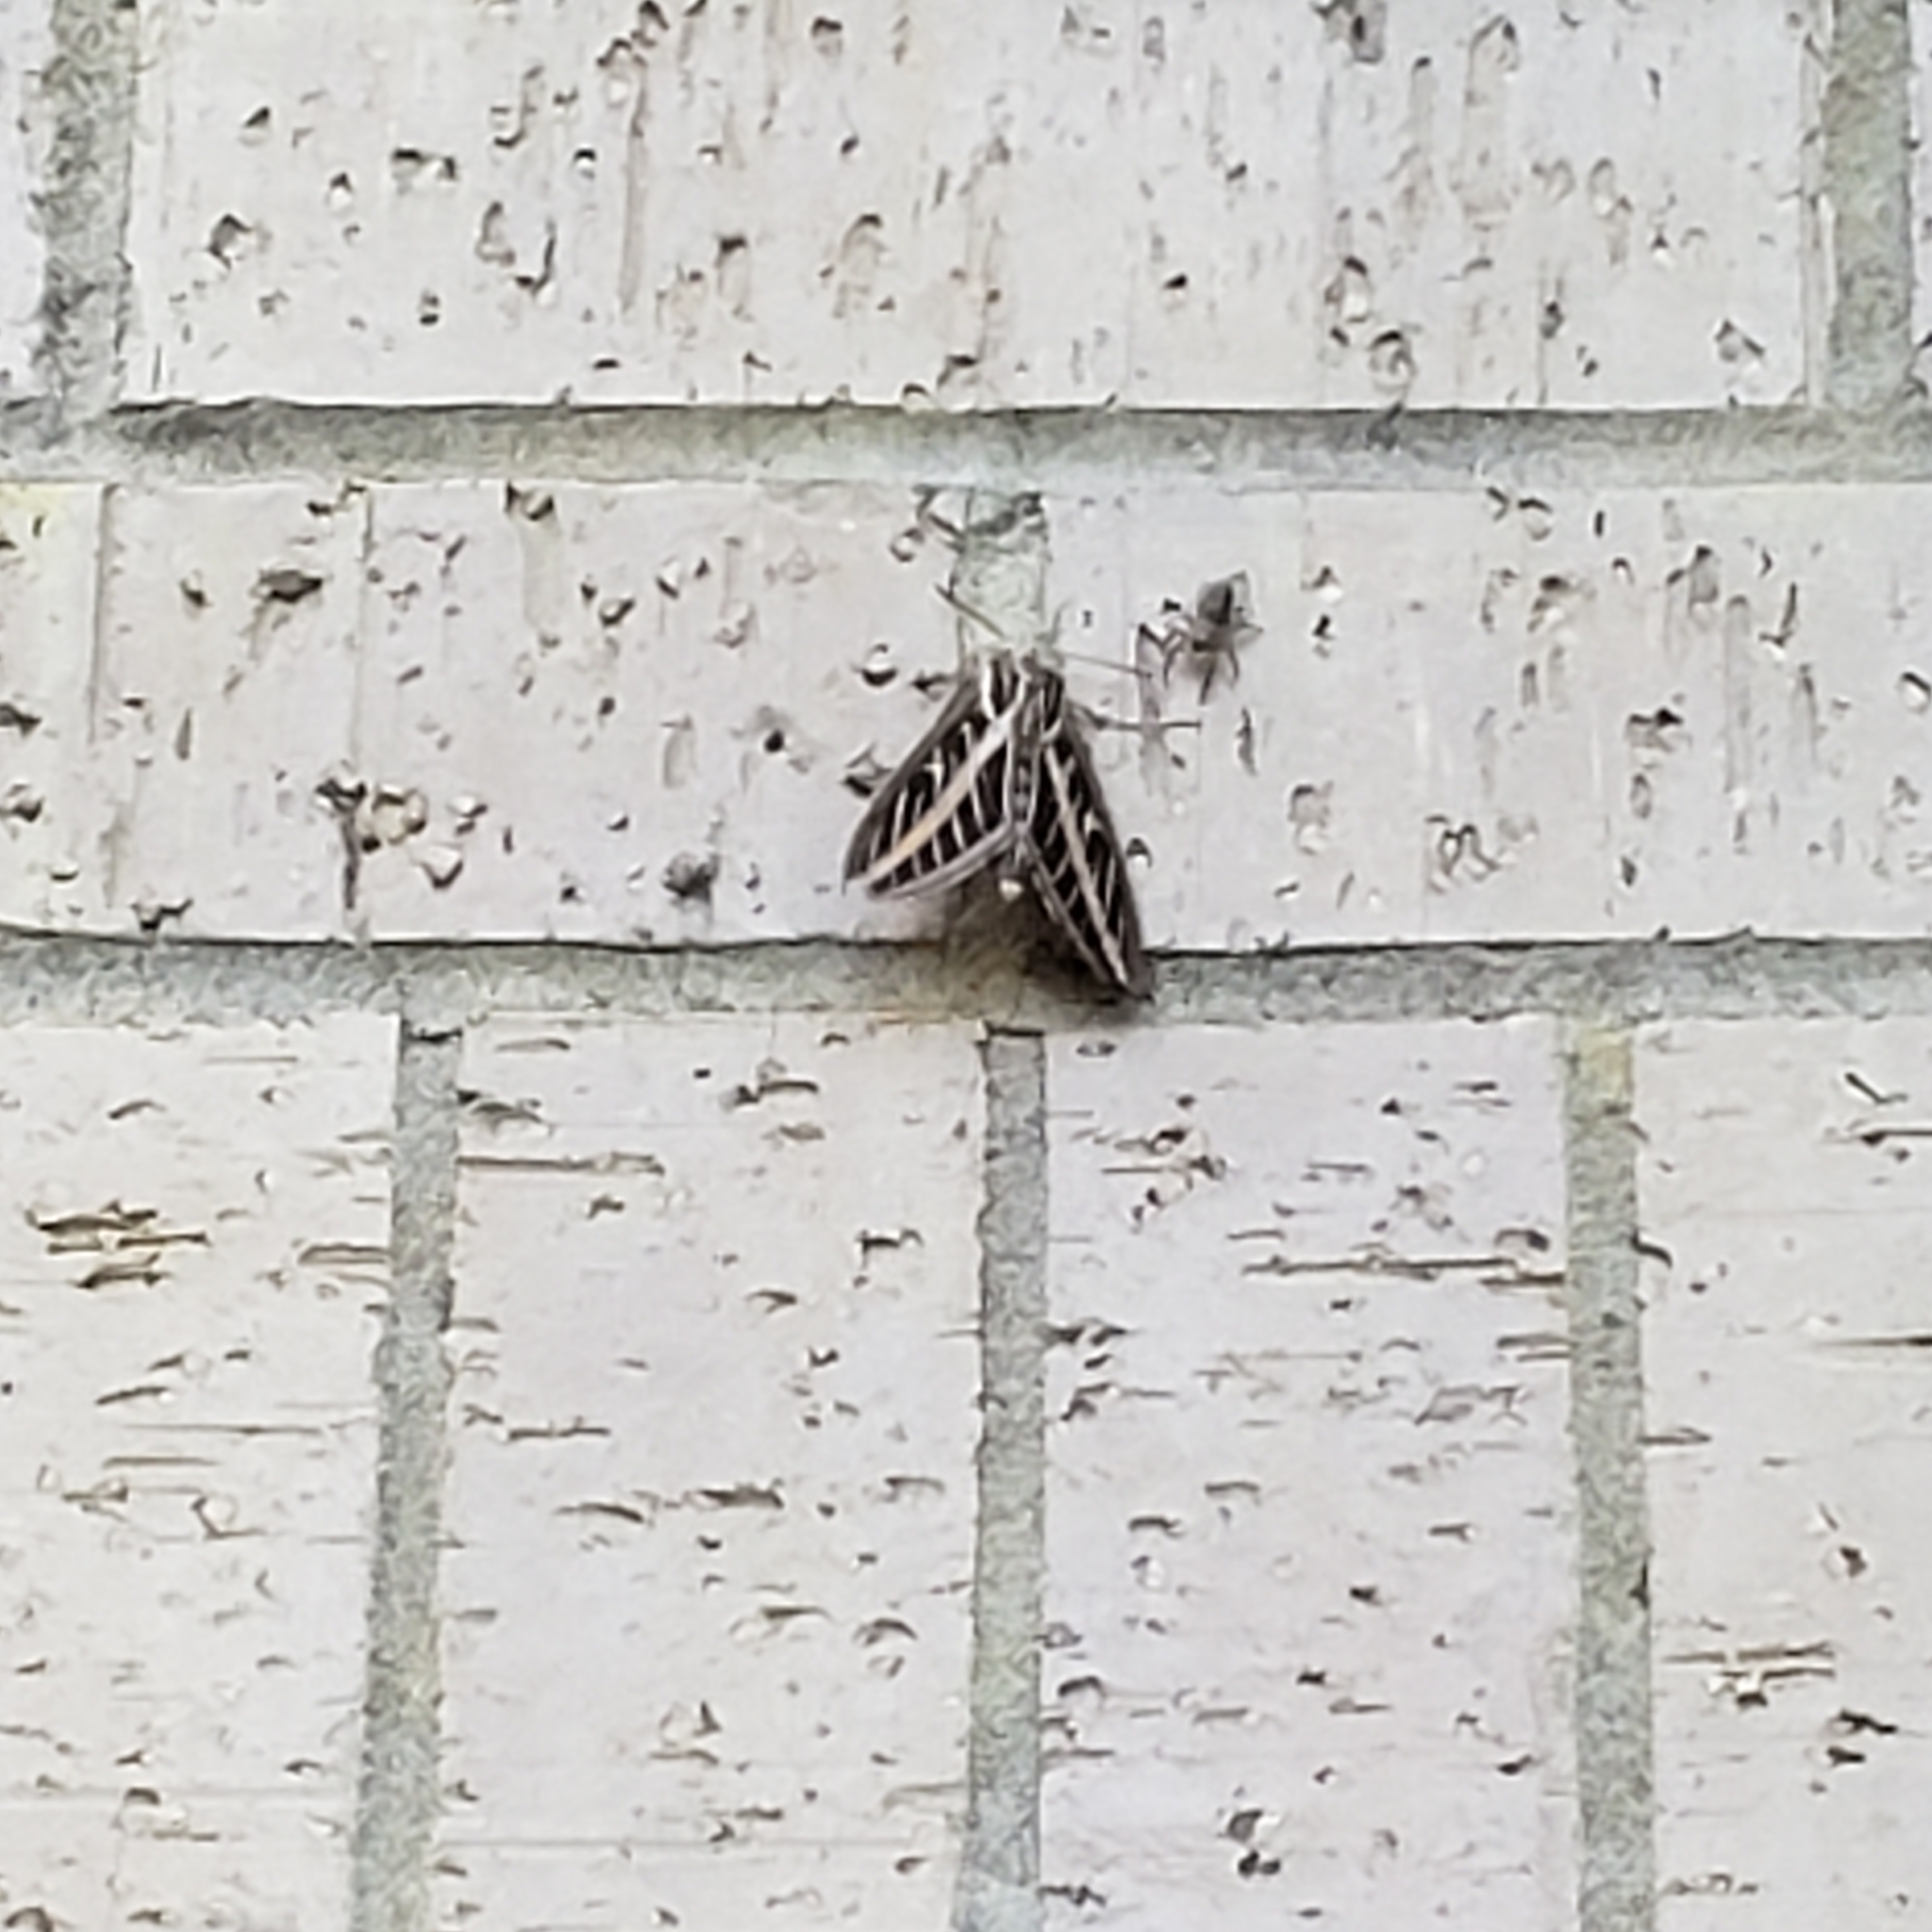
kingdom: Animalia
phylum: Arthropoda
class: Insecta
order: Lepidoptera
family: Sphingidae
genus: Hyles
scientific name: Hyles lineata
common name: White-lined sphinx
